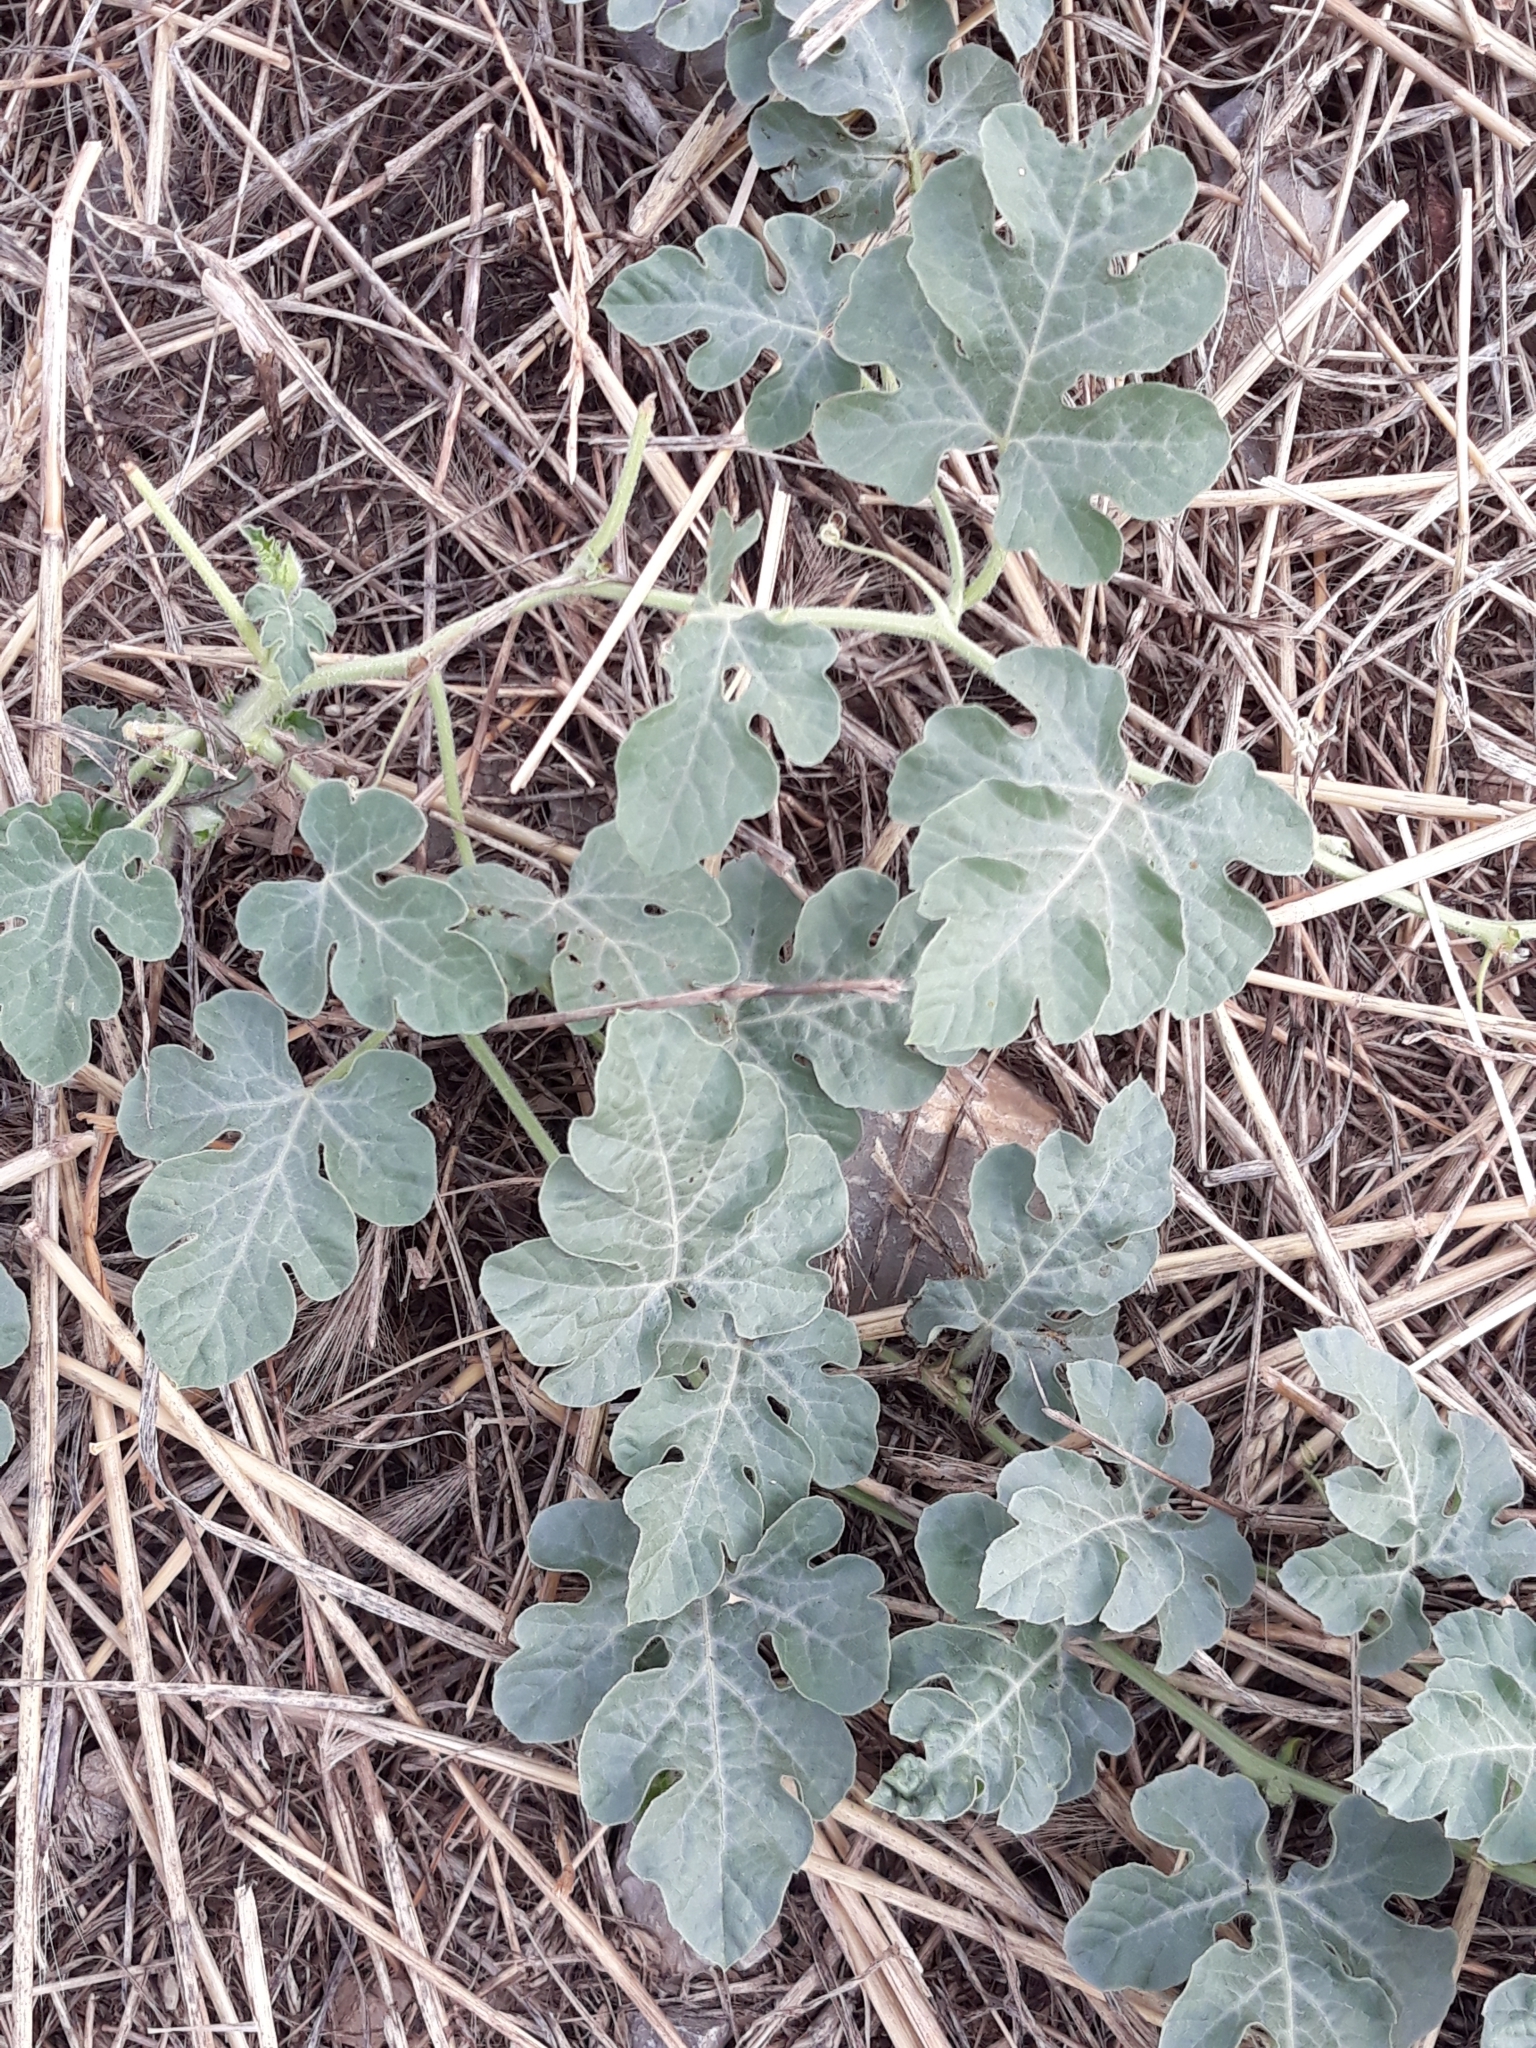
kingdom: Plantae
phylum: Tracheophyta
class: Magnoliopsida
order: Cucurbitales
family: Cucurbitaceae
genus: Citrullus
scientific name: Citrullus lanatus
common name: Watermelon
